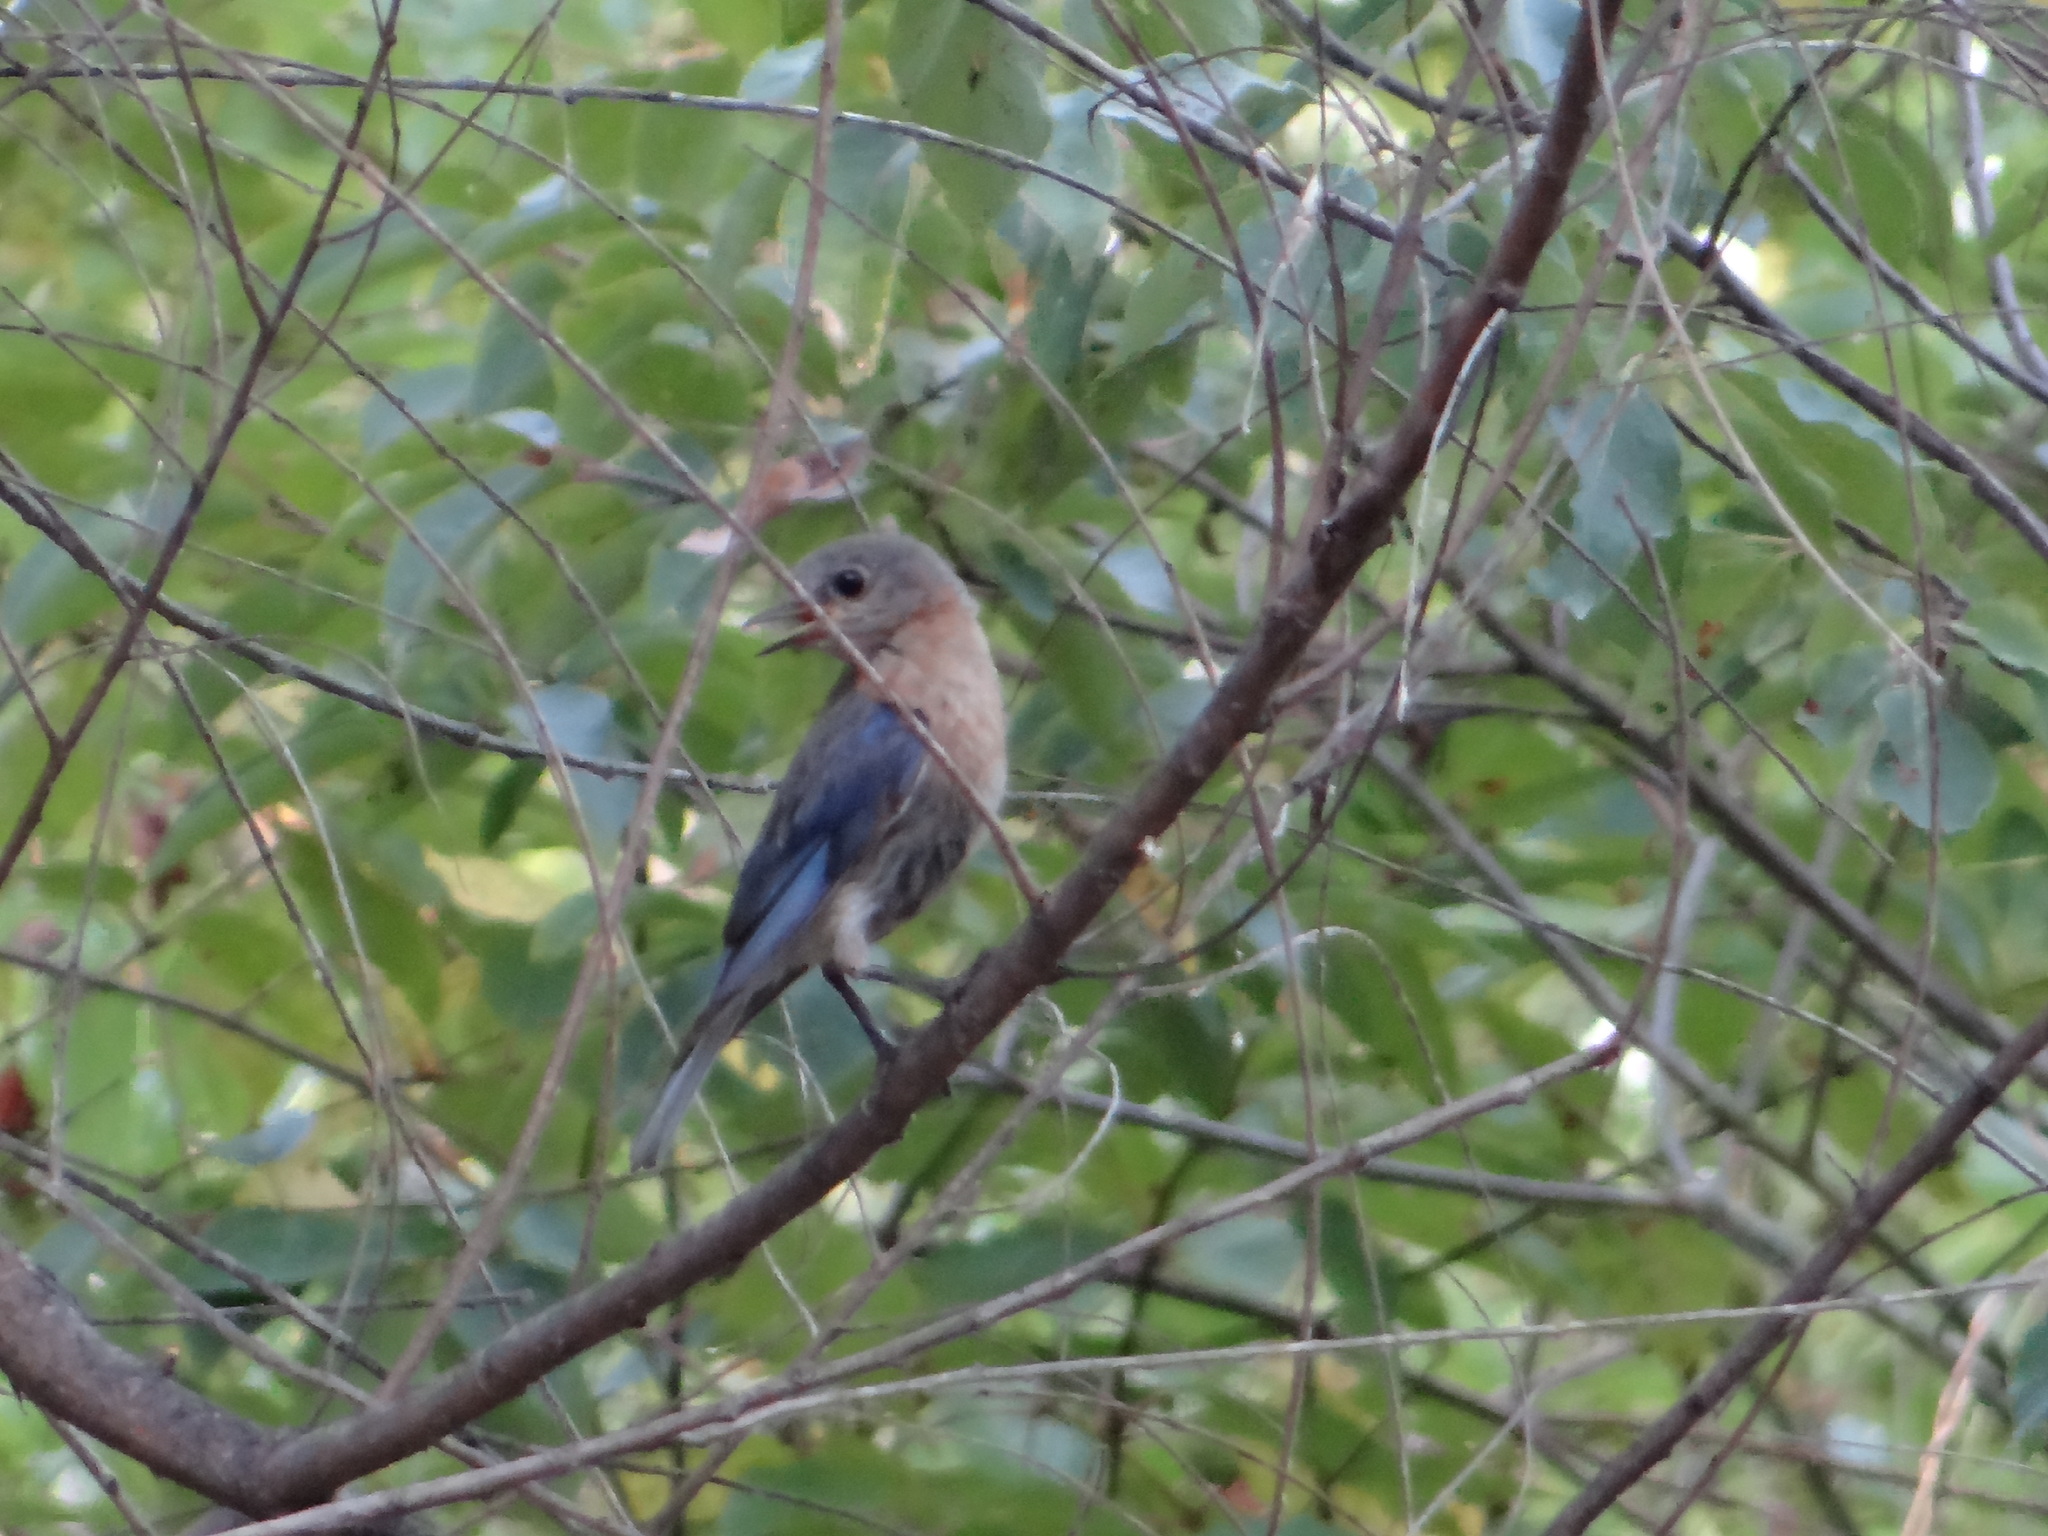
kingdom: Animalia
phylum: Chordata
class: Aves
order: Passeriformes
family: Turdidae
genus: Sialia
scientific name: Sialia sialis
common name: Eastern bluebird
